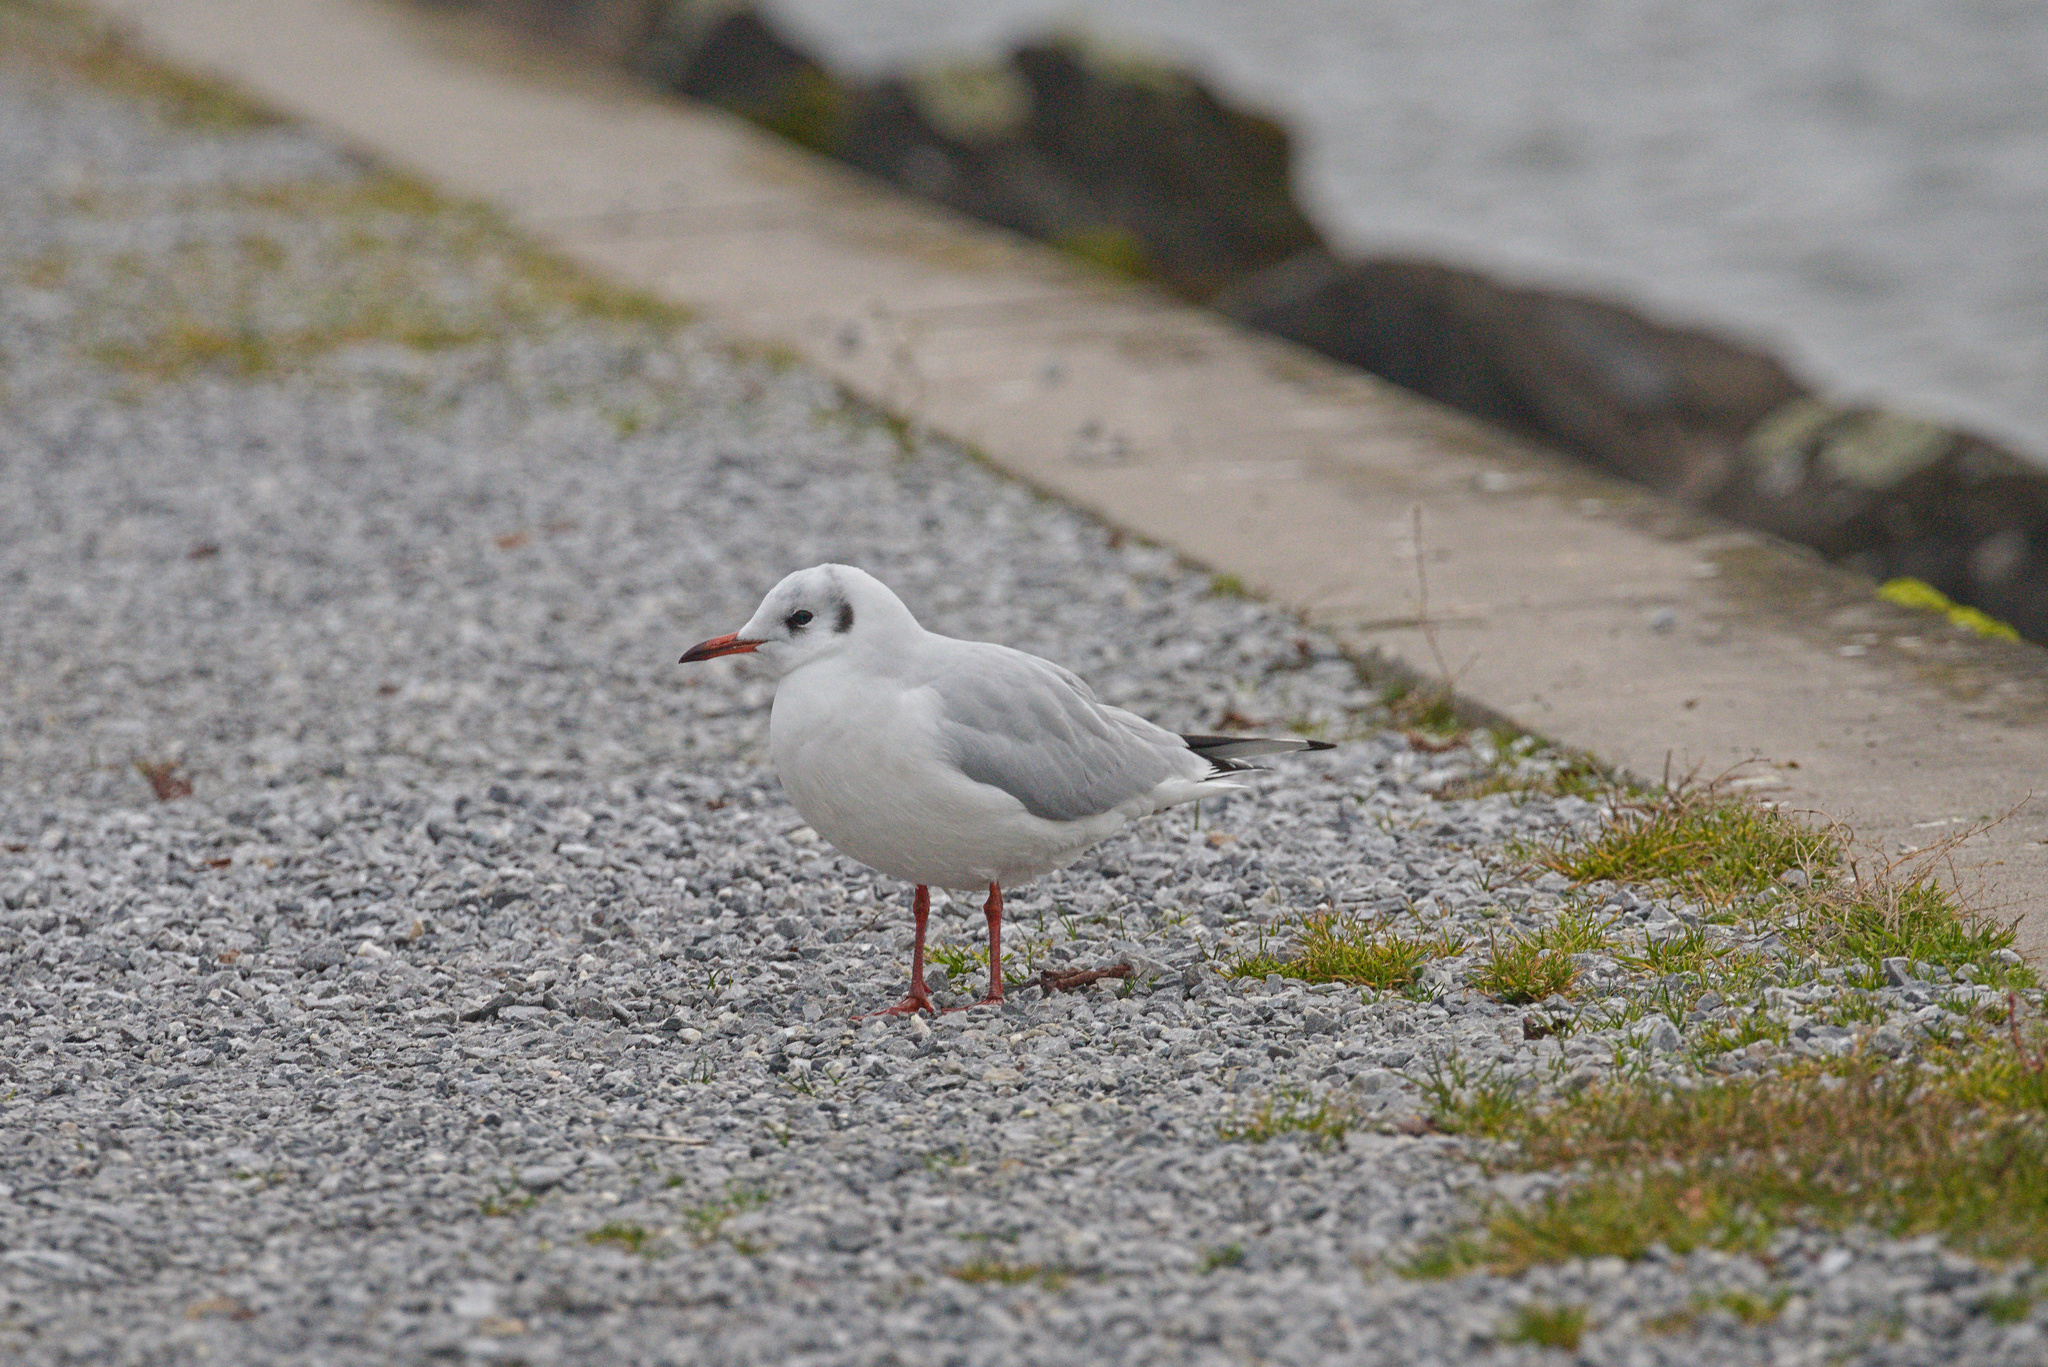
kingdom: Animalia
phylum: Chordata
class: Aves
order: Charadriiformes
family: Laridae
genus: Chroicocephalus
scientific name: Chroicocephalus ridibundus
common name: Black-headed gull
